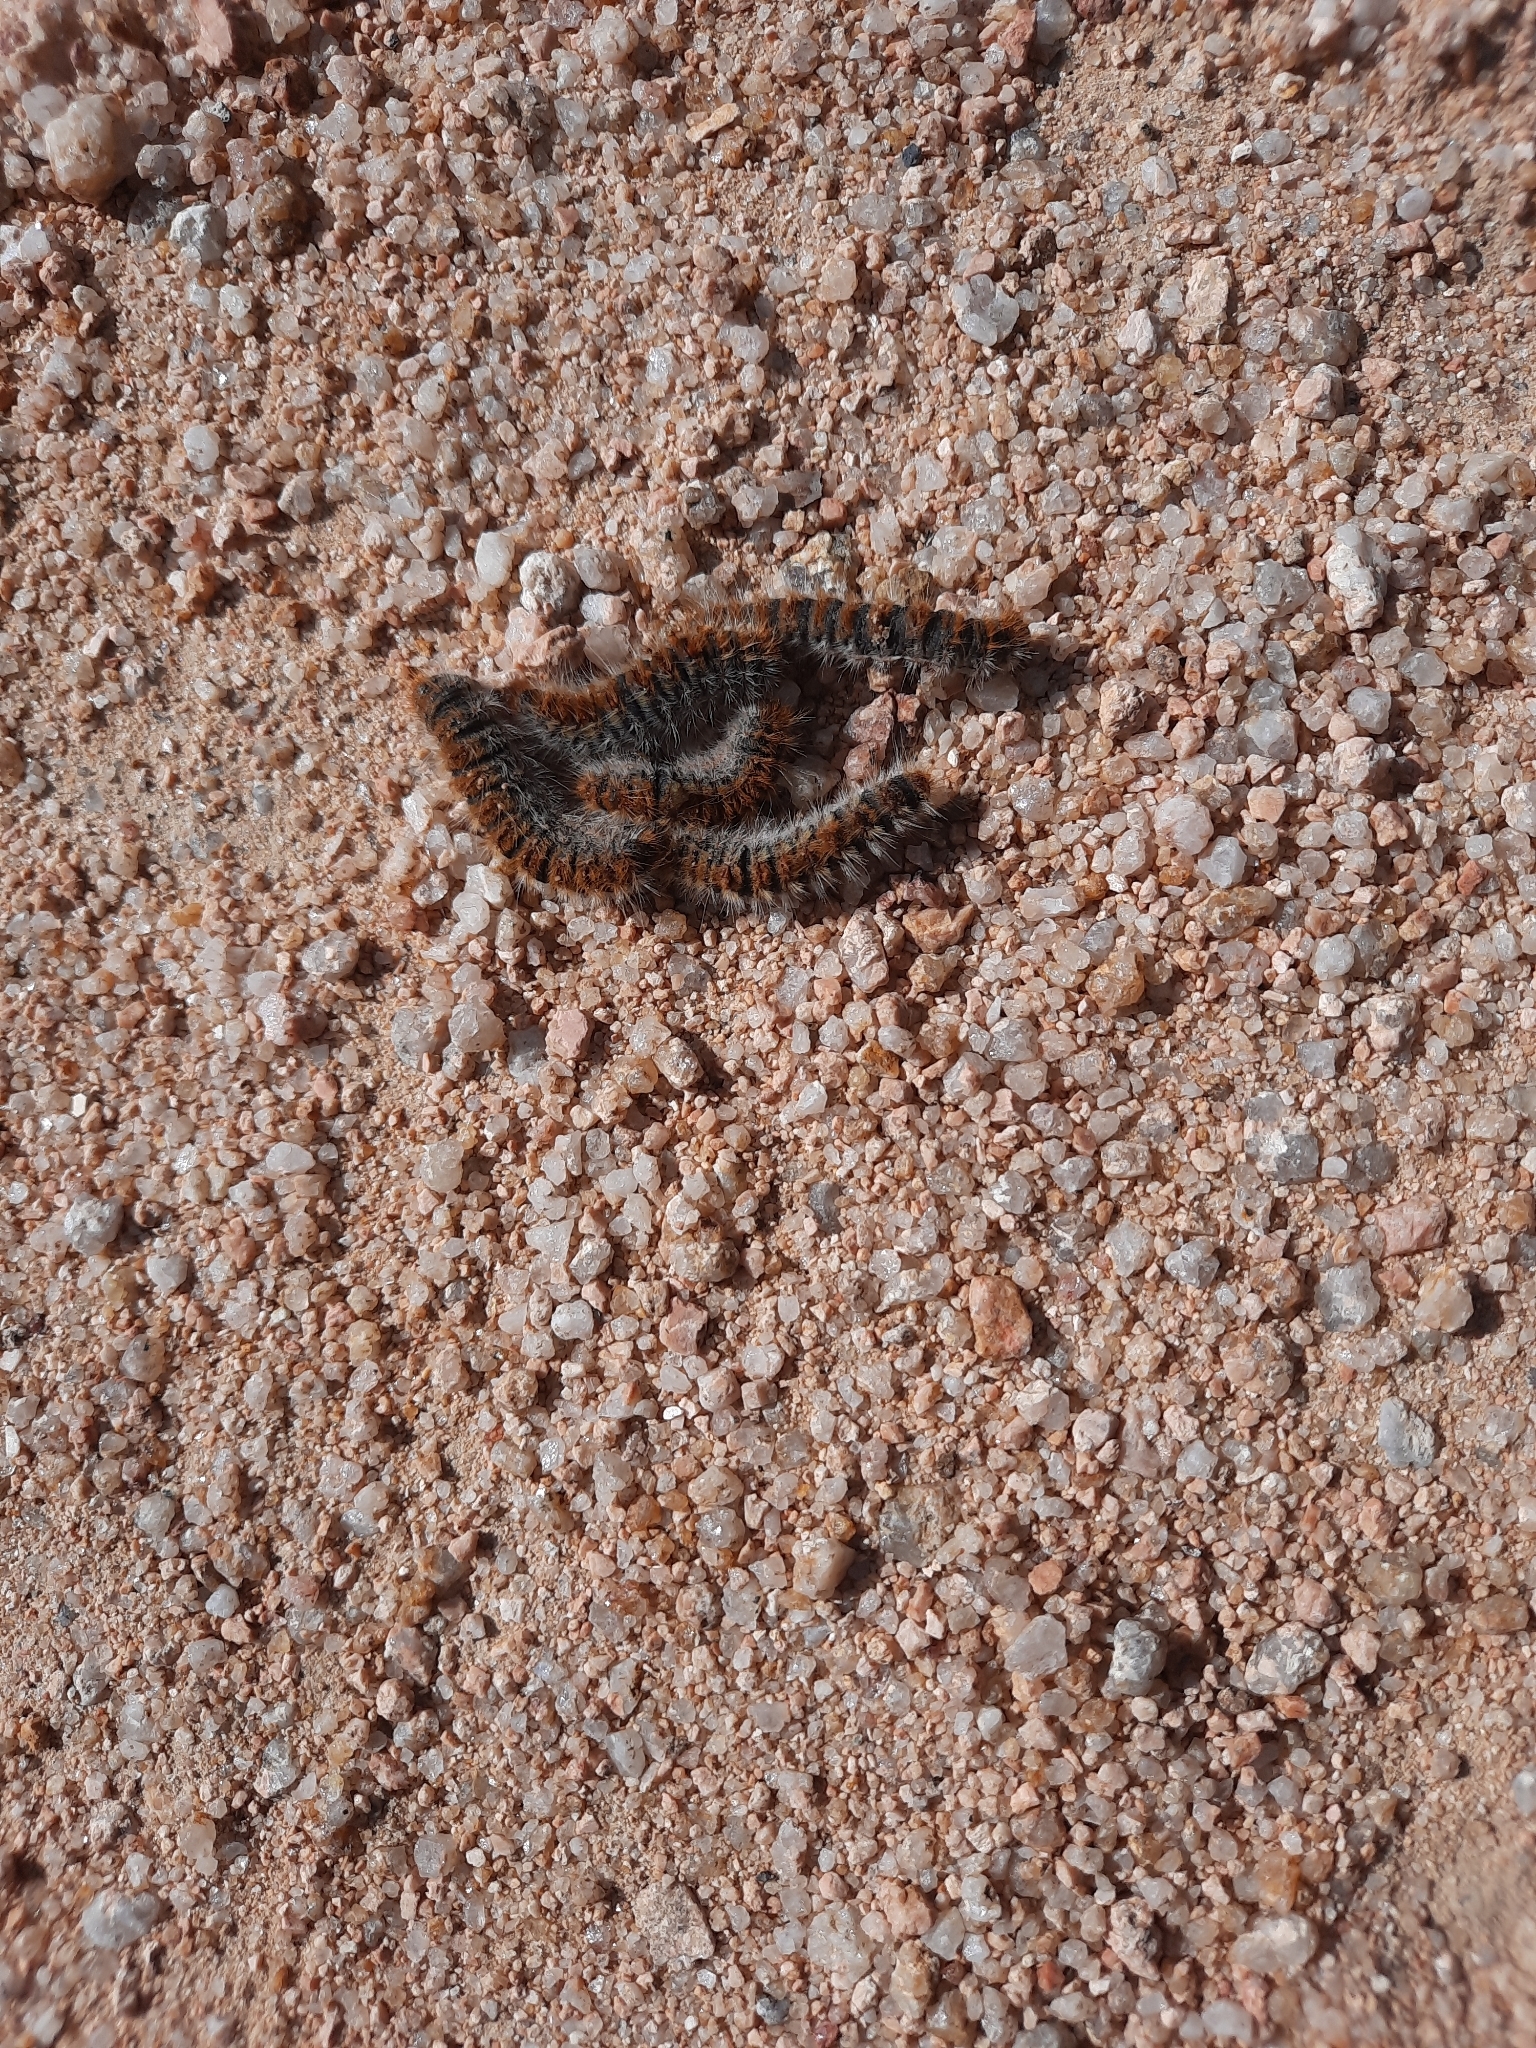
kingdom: Animalia
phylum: Arthropoda
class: Insecta
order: Lepidoptera
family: Notodontidae
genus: Thaumetopoea
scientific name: Thaumetopoea pityocampa
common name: Pine processionary
